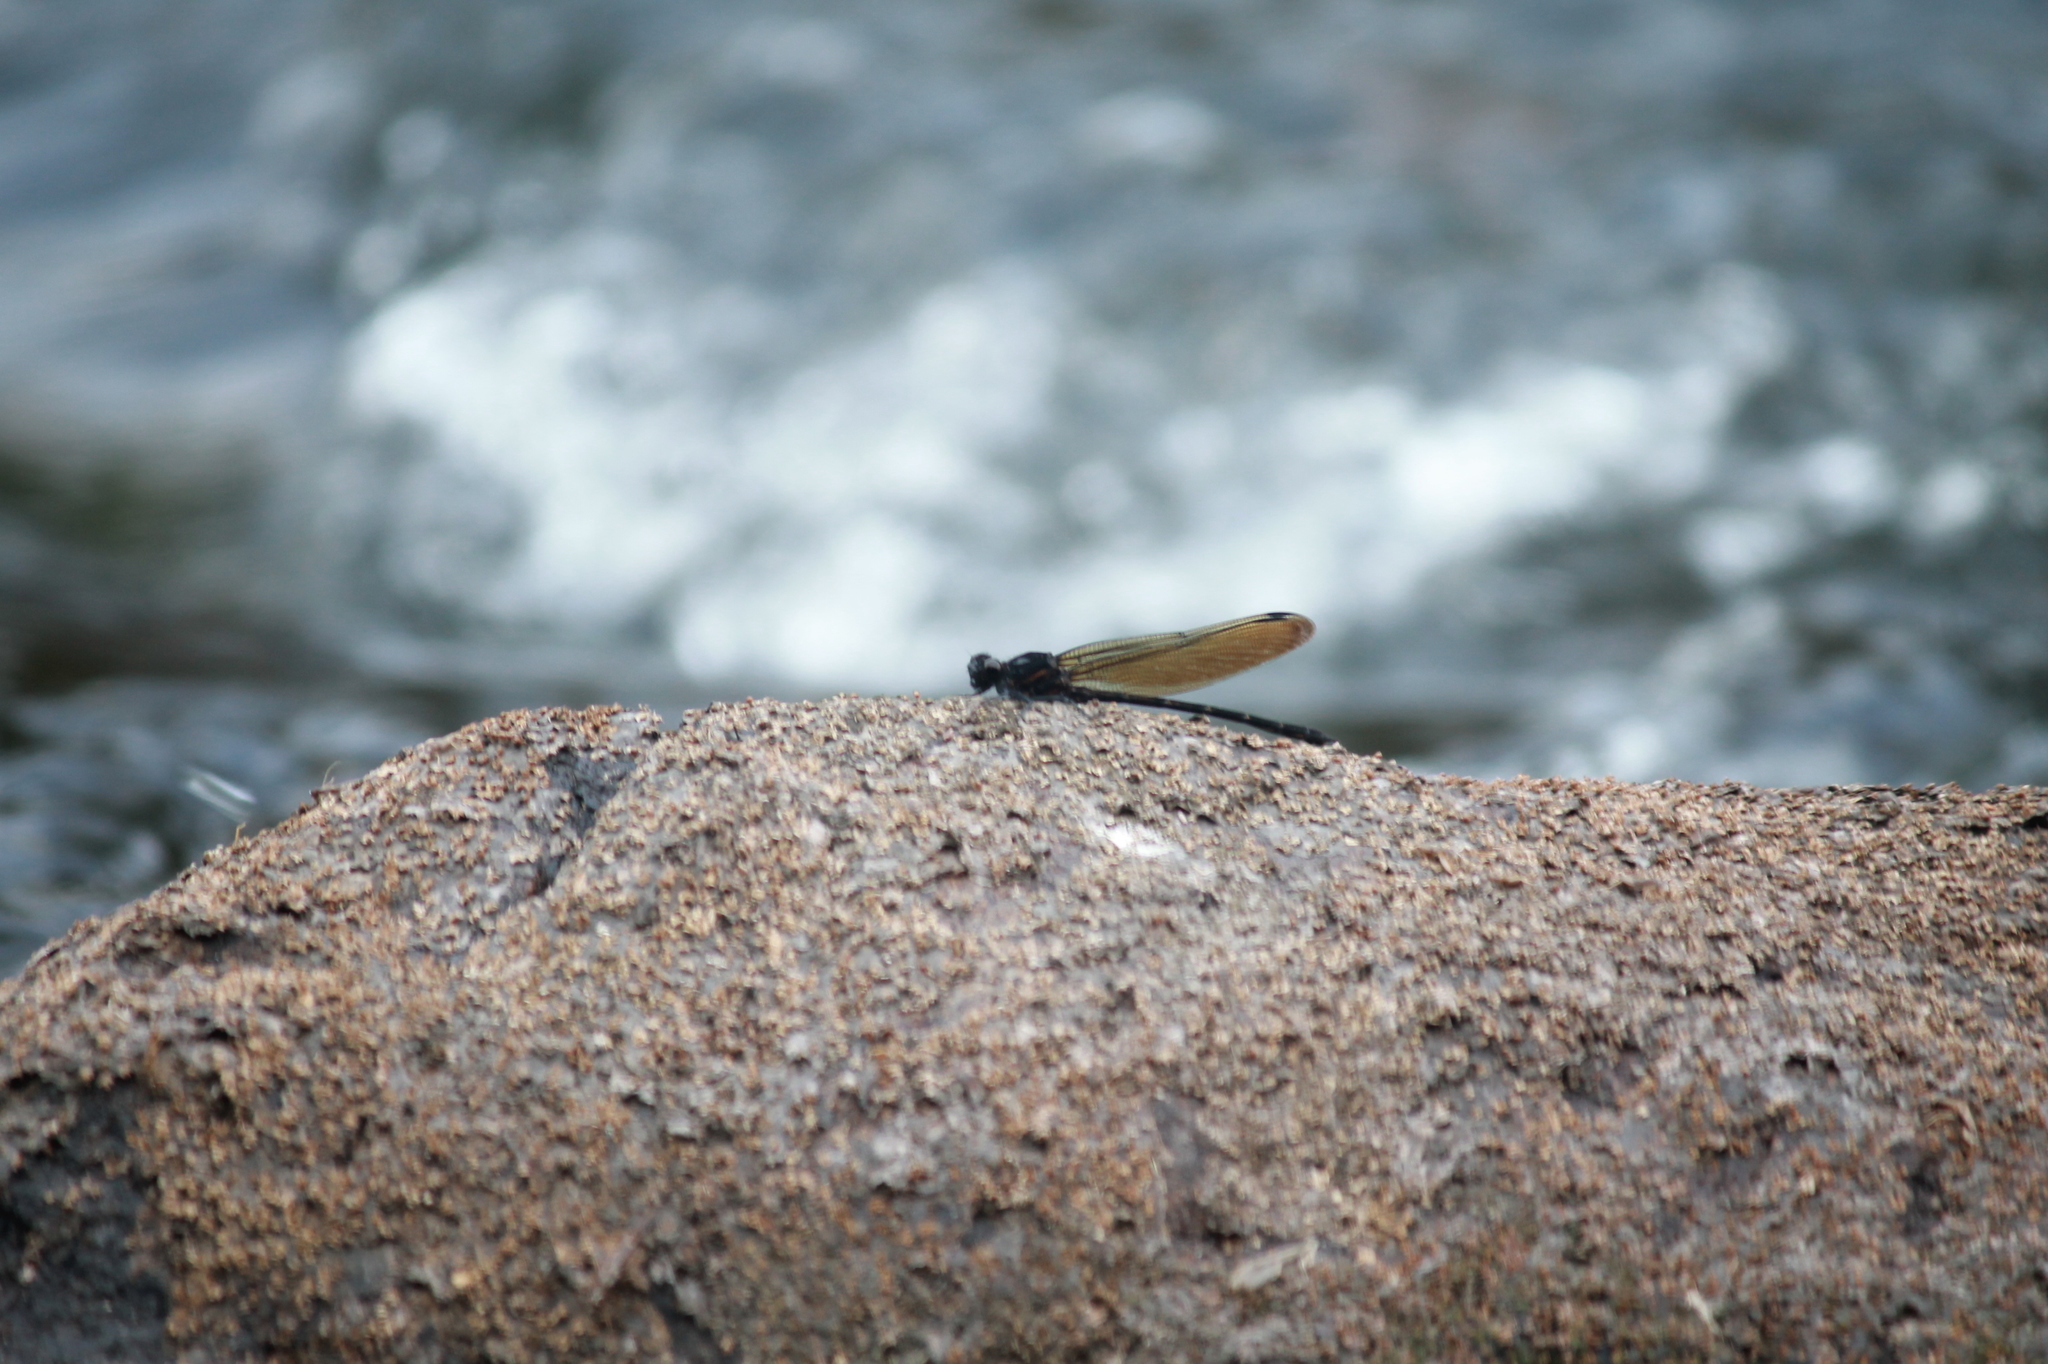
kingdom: Animalia
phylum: Arthropoda
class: Insecta
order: Odonata
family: Euphaeidae
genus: Dysphaea
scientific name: Dysphaea ethela
